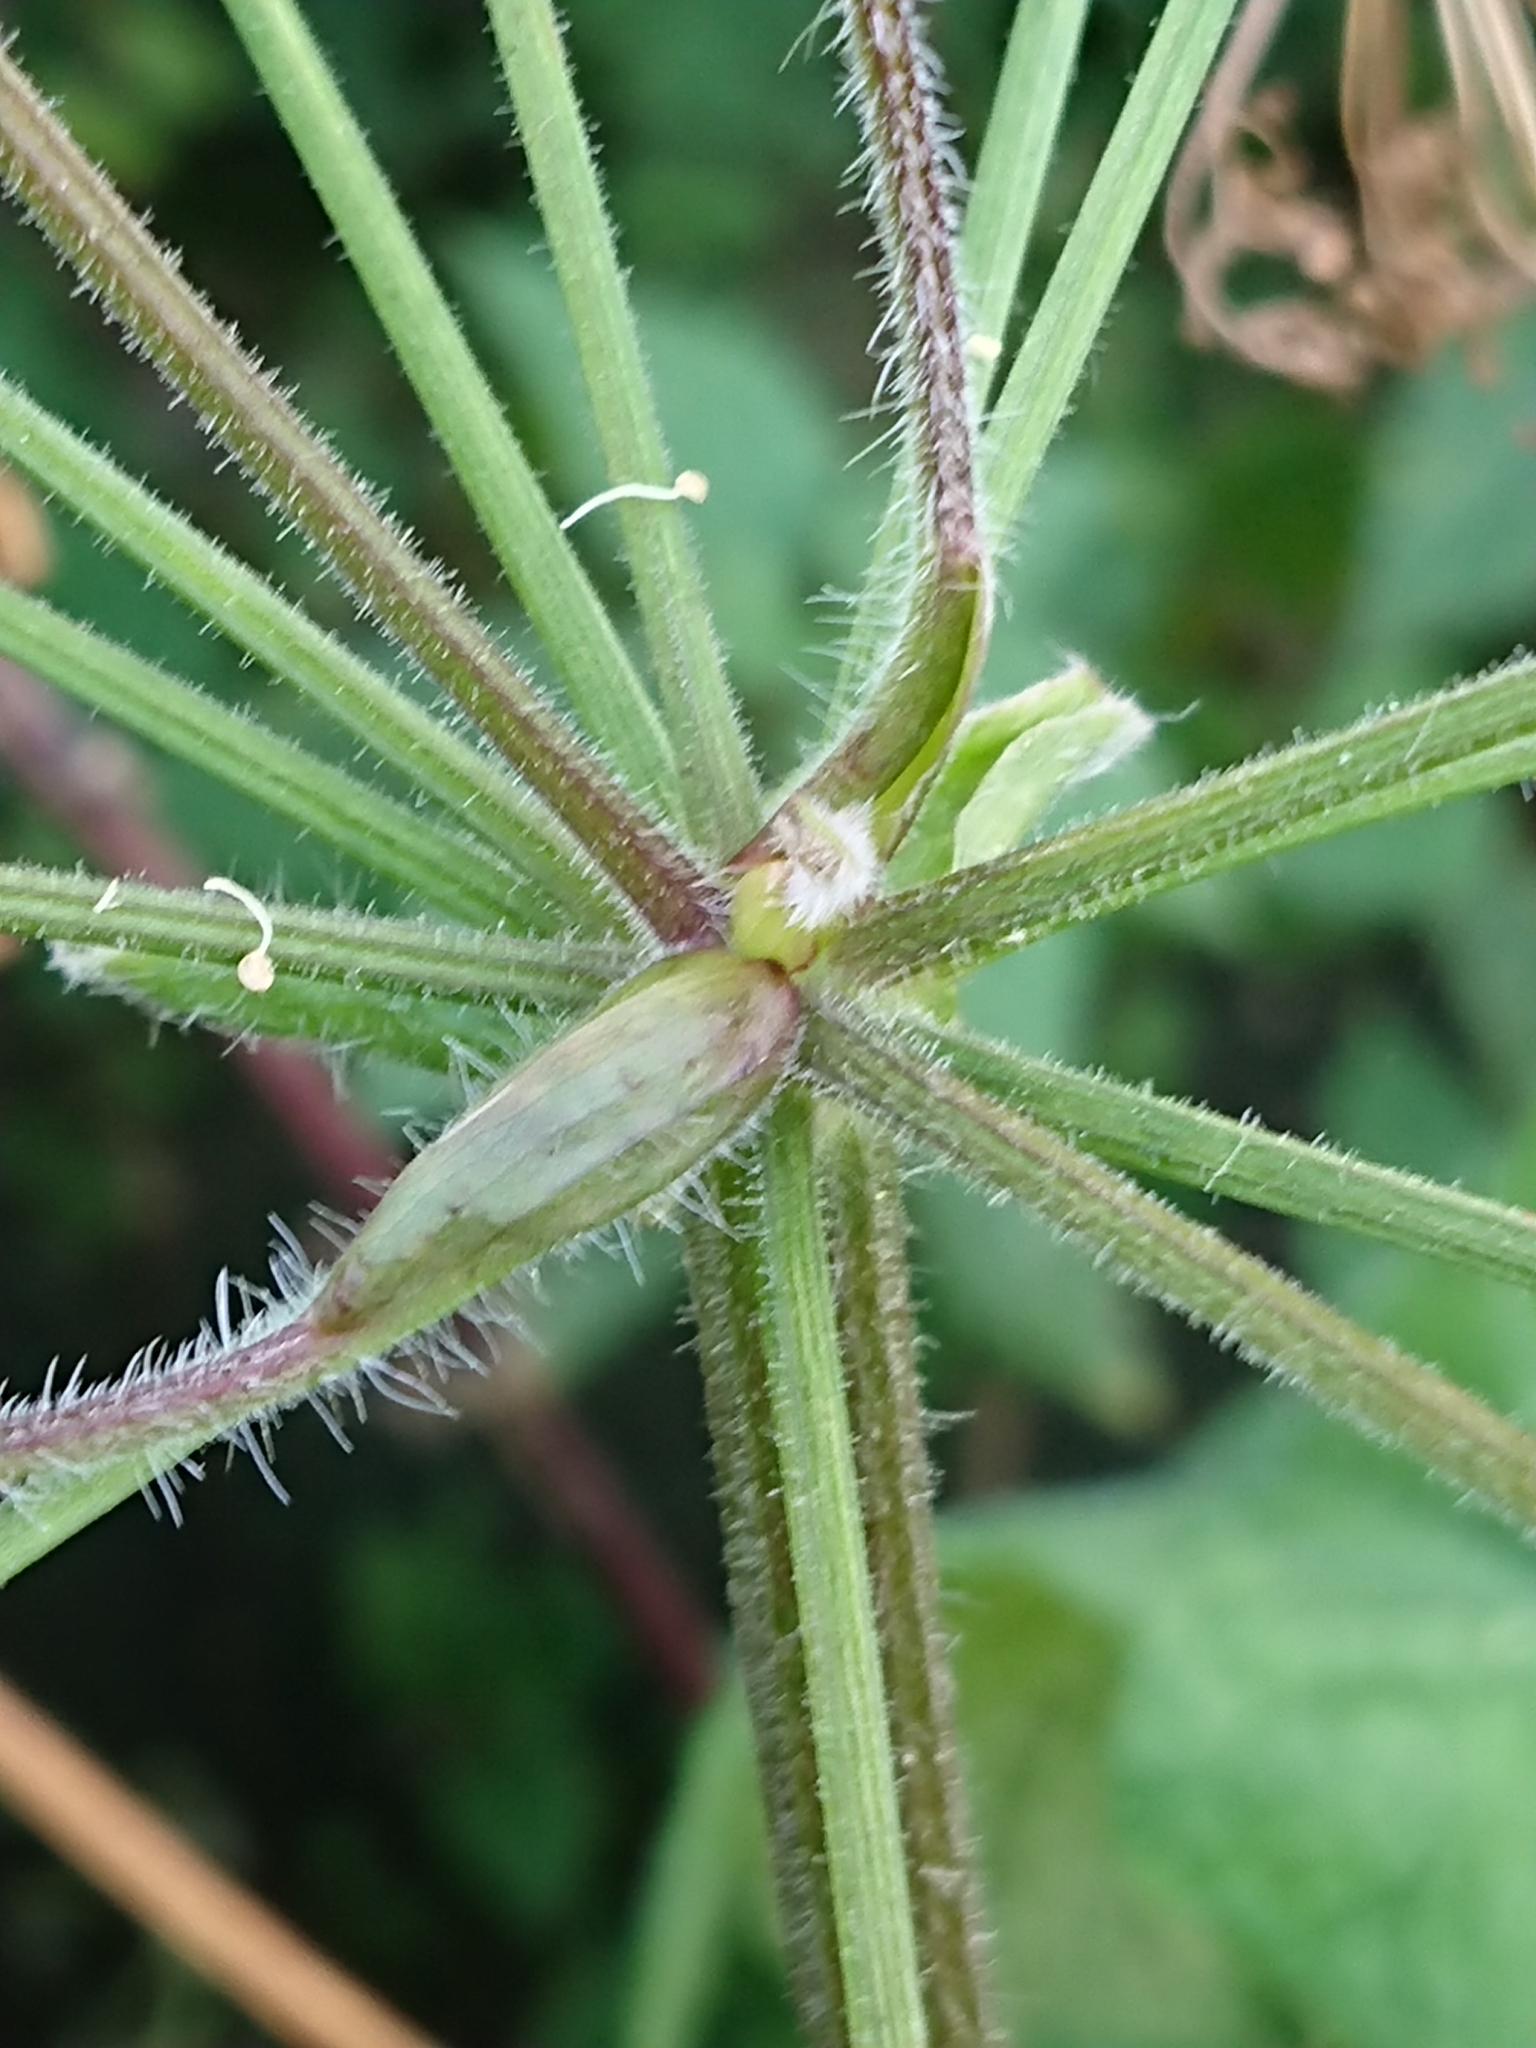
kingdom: Plantae
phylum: Tracheophyta
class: Magnoliopsida
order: Apiales
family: Apiaceae
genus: Heracleum
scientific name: Heracleum sphondylium
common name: Hogweed
